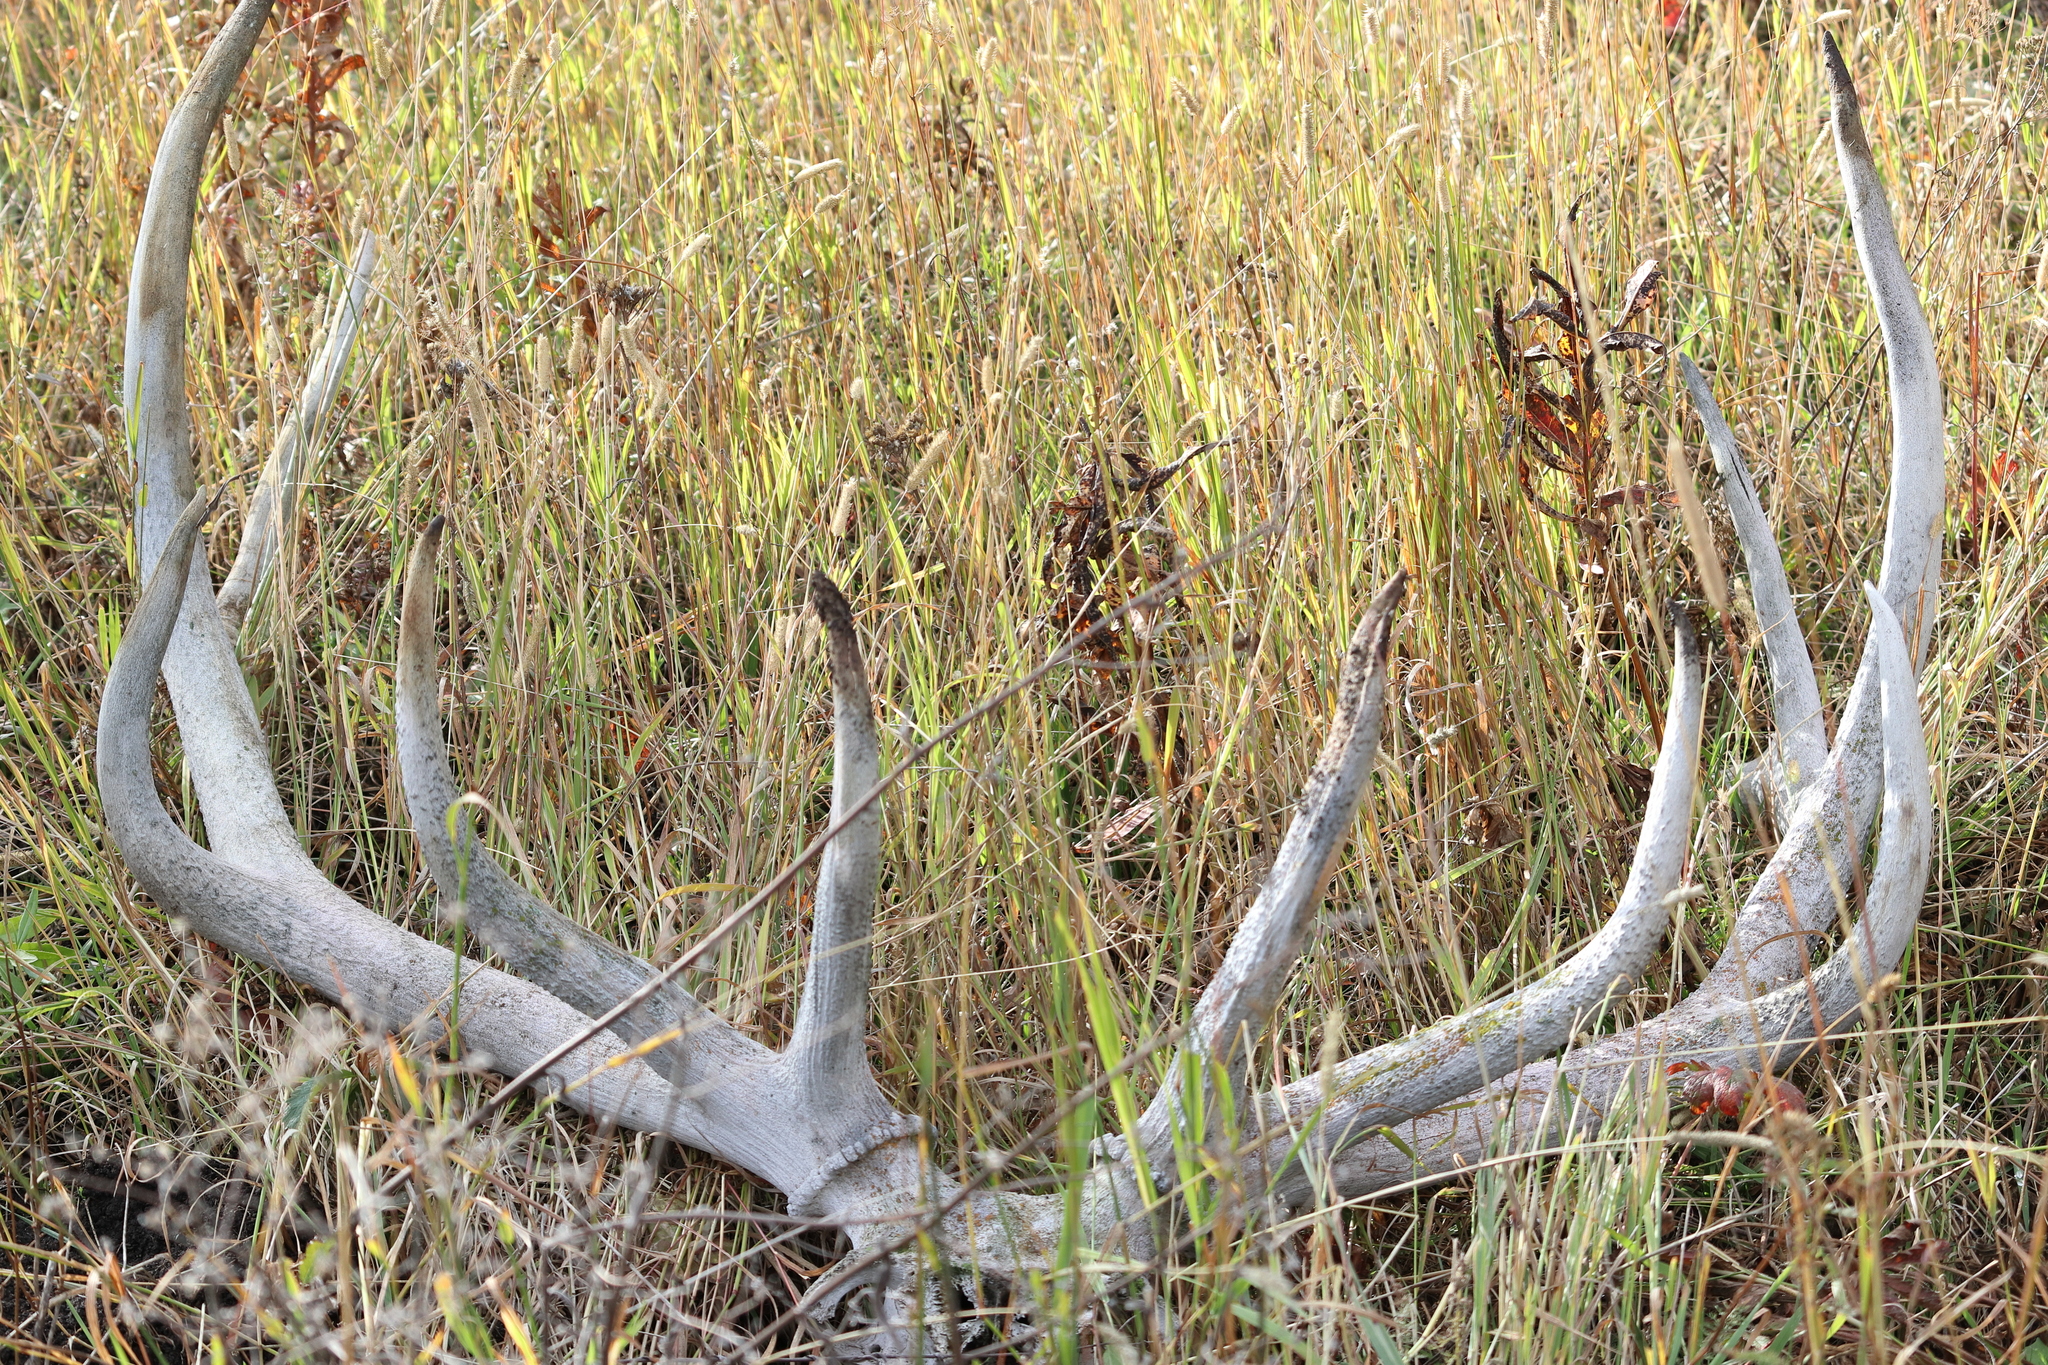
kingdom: Animalia
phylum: Chordata
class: Mammalia
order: Artiodactyla
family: Cervidae
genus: Cervus
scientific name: Cervus elaphus
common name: Red deer
